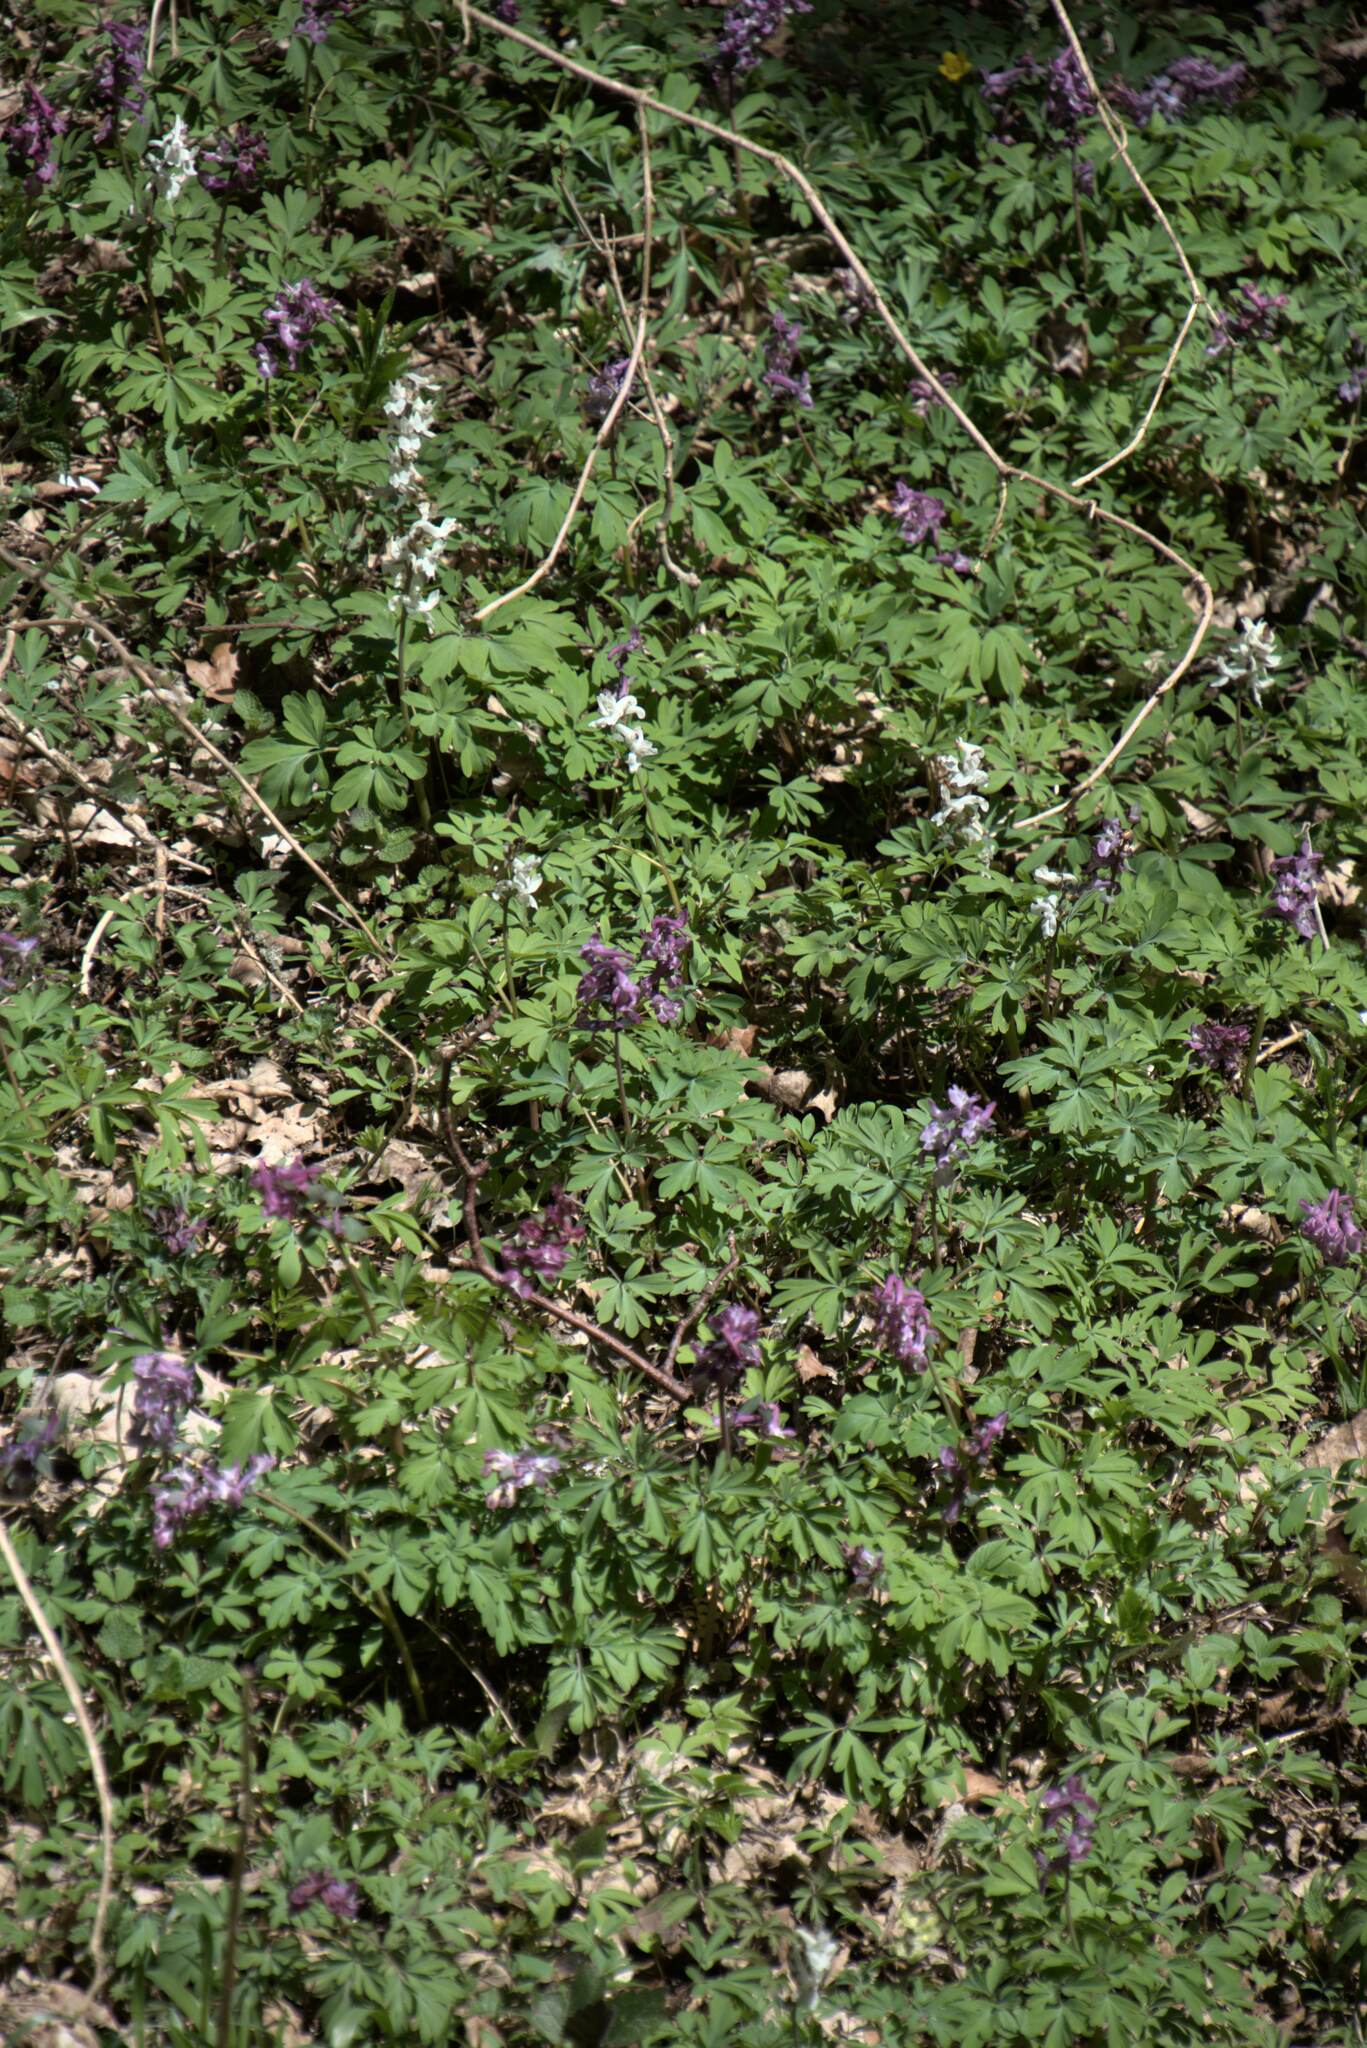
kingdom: Plantae
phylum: Tracheophyta
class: Magnoliopsida
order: Ranunculales
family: Papaveraceae
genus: Corydalis
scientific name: Corydalis cava
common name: Hollowroot
